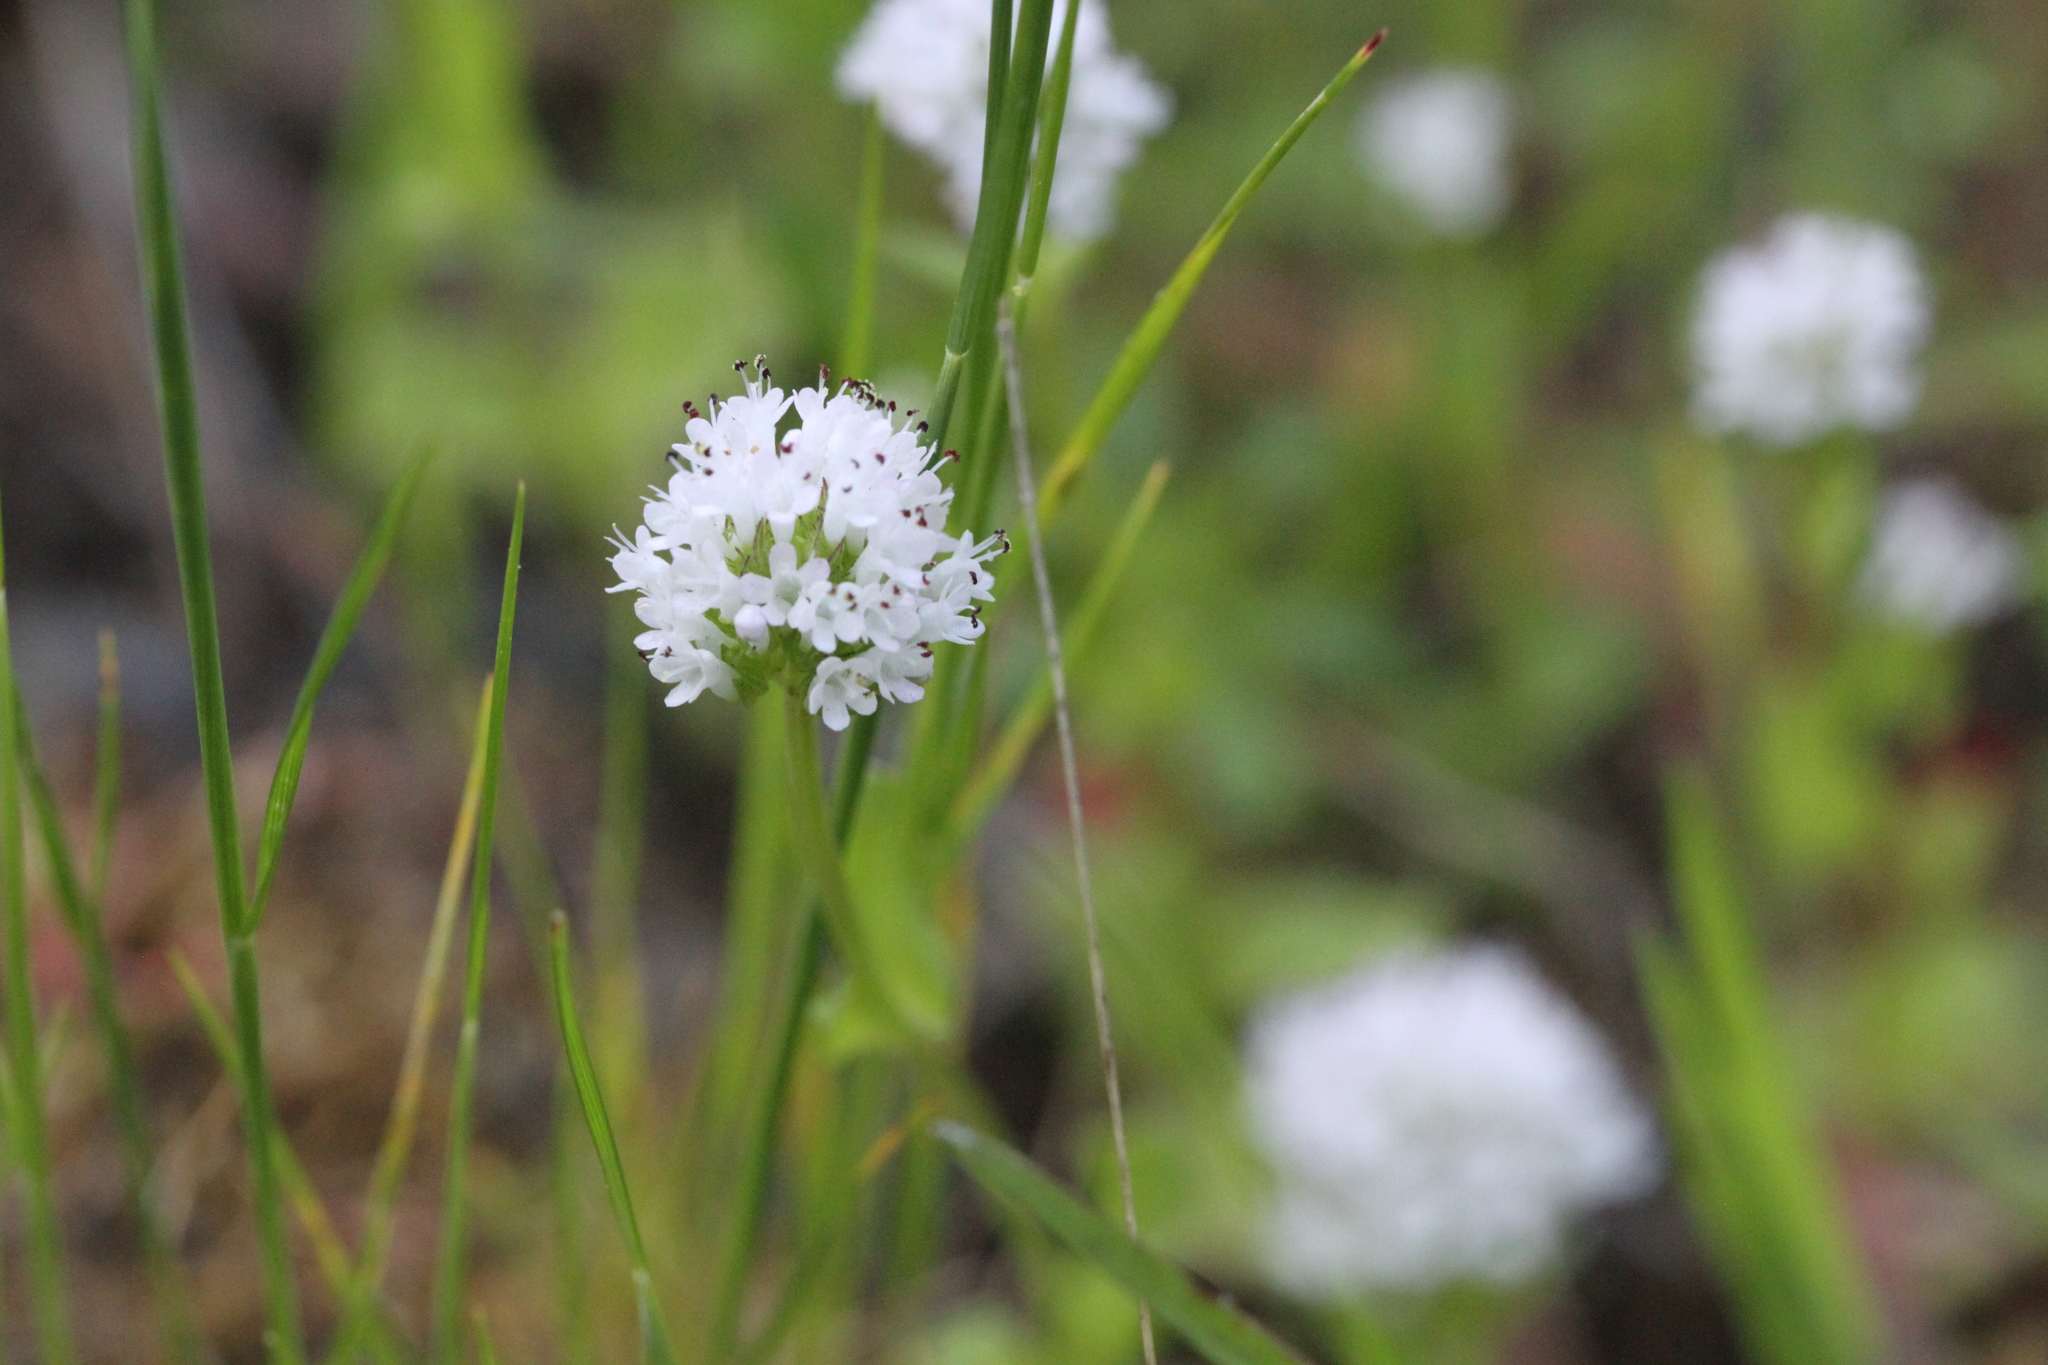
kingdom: Plantae
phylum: Tracheophyta
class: Magnoliopsida
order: Dipsacales
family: Caprifoliaceae
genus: Plectritis
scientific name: Plectritis macroptera
